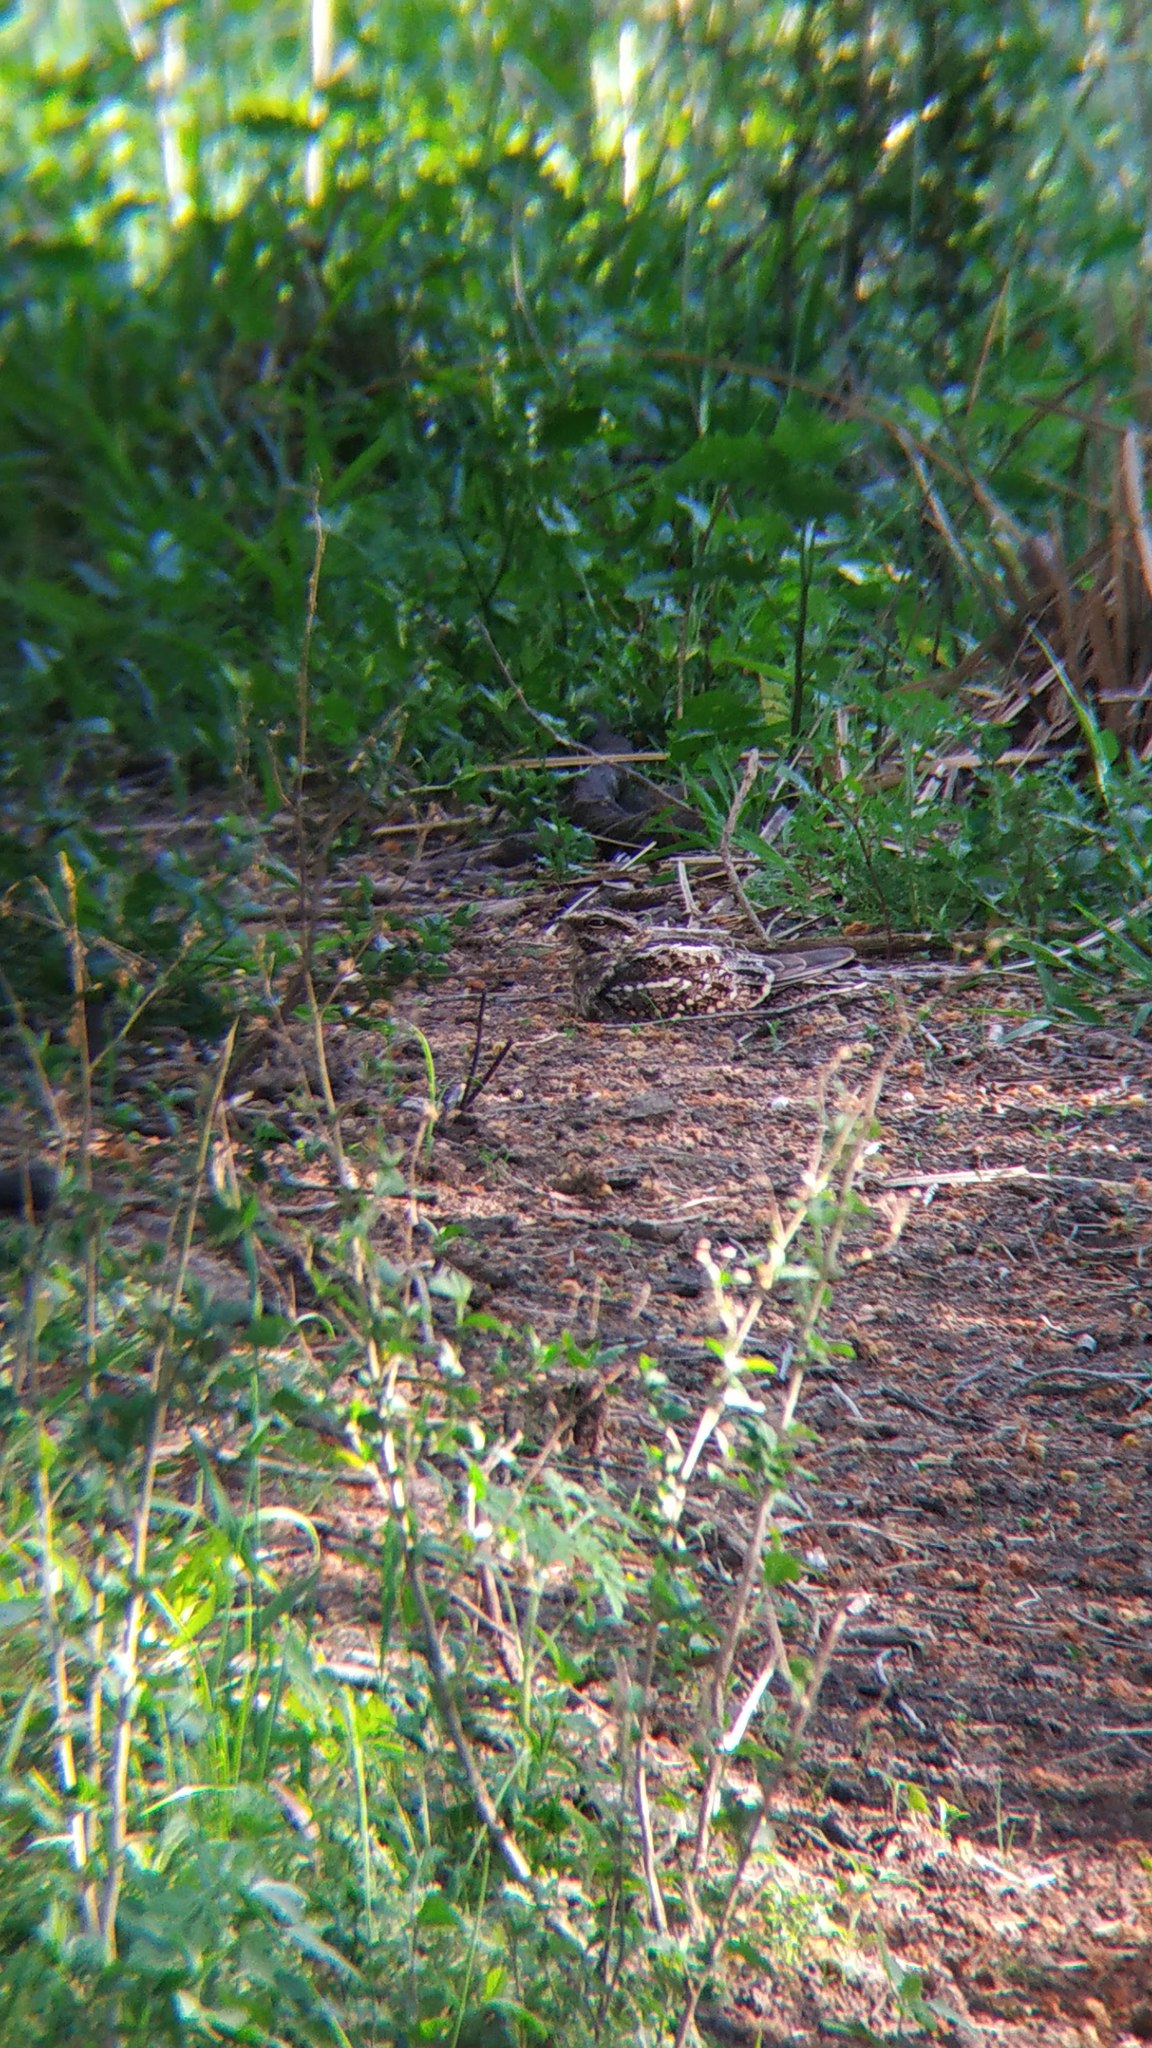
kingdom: Animalia
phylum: Chordata
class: Aves
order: Caprimulgiformes
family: Caprimulgidae
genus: Hydropsalis
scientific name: Hydropsalis torquata
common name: Scissor-tailed nightjar
